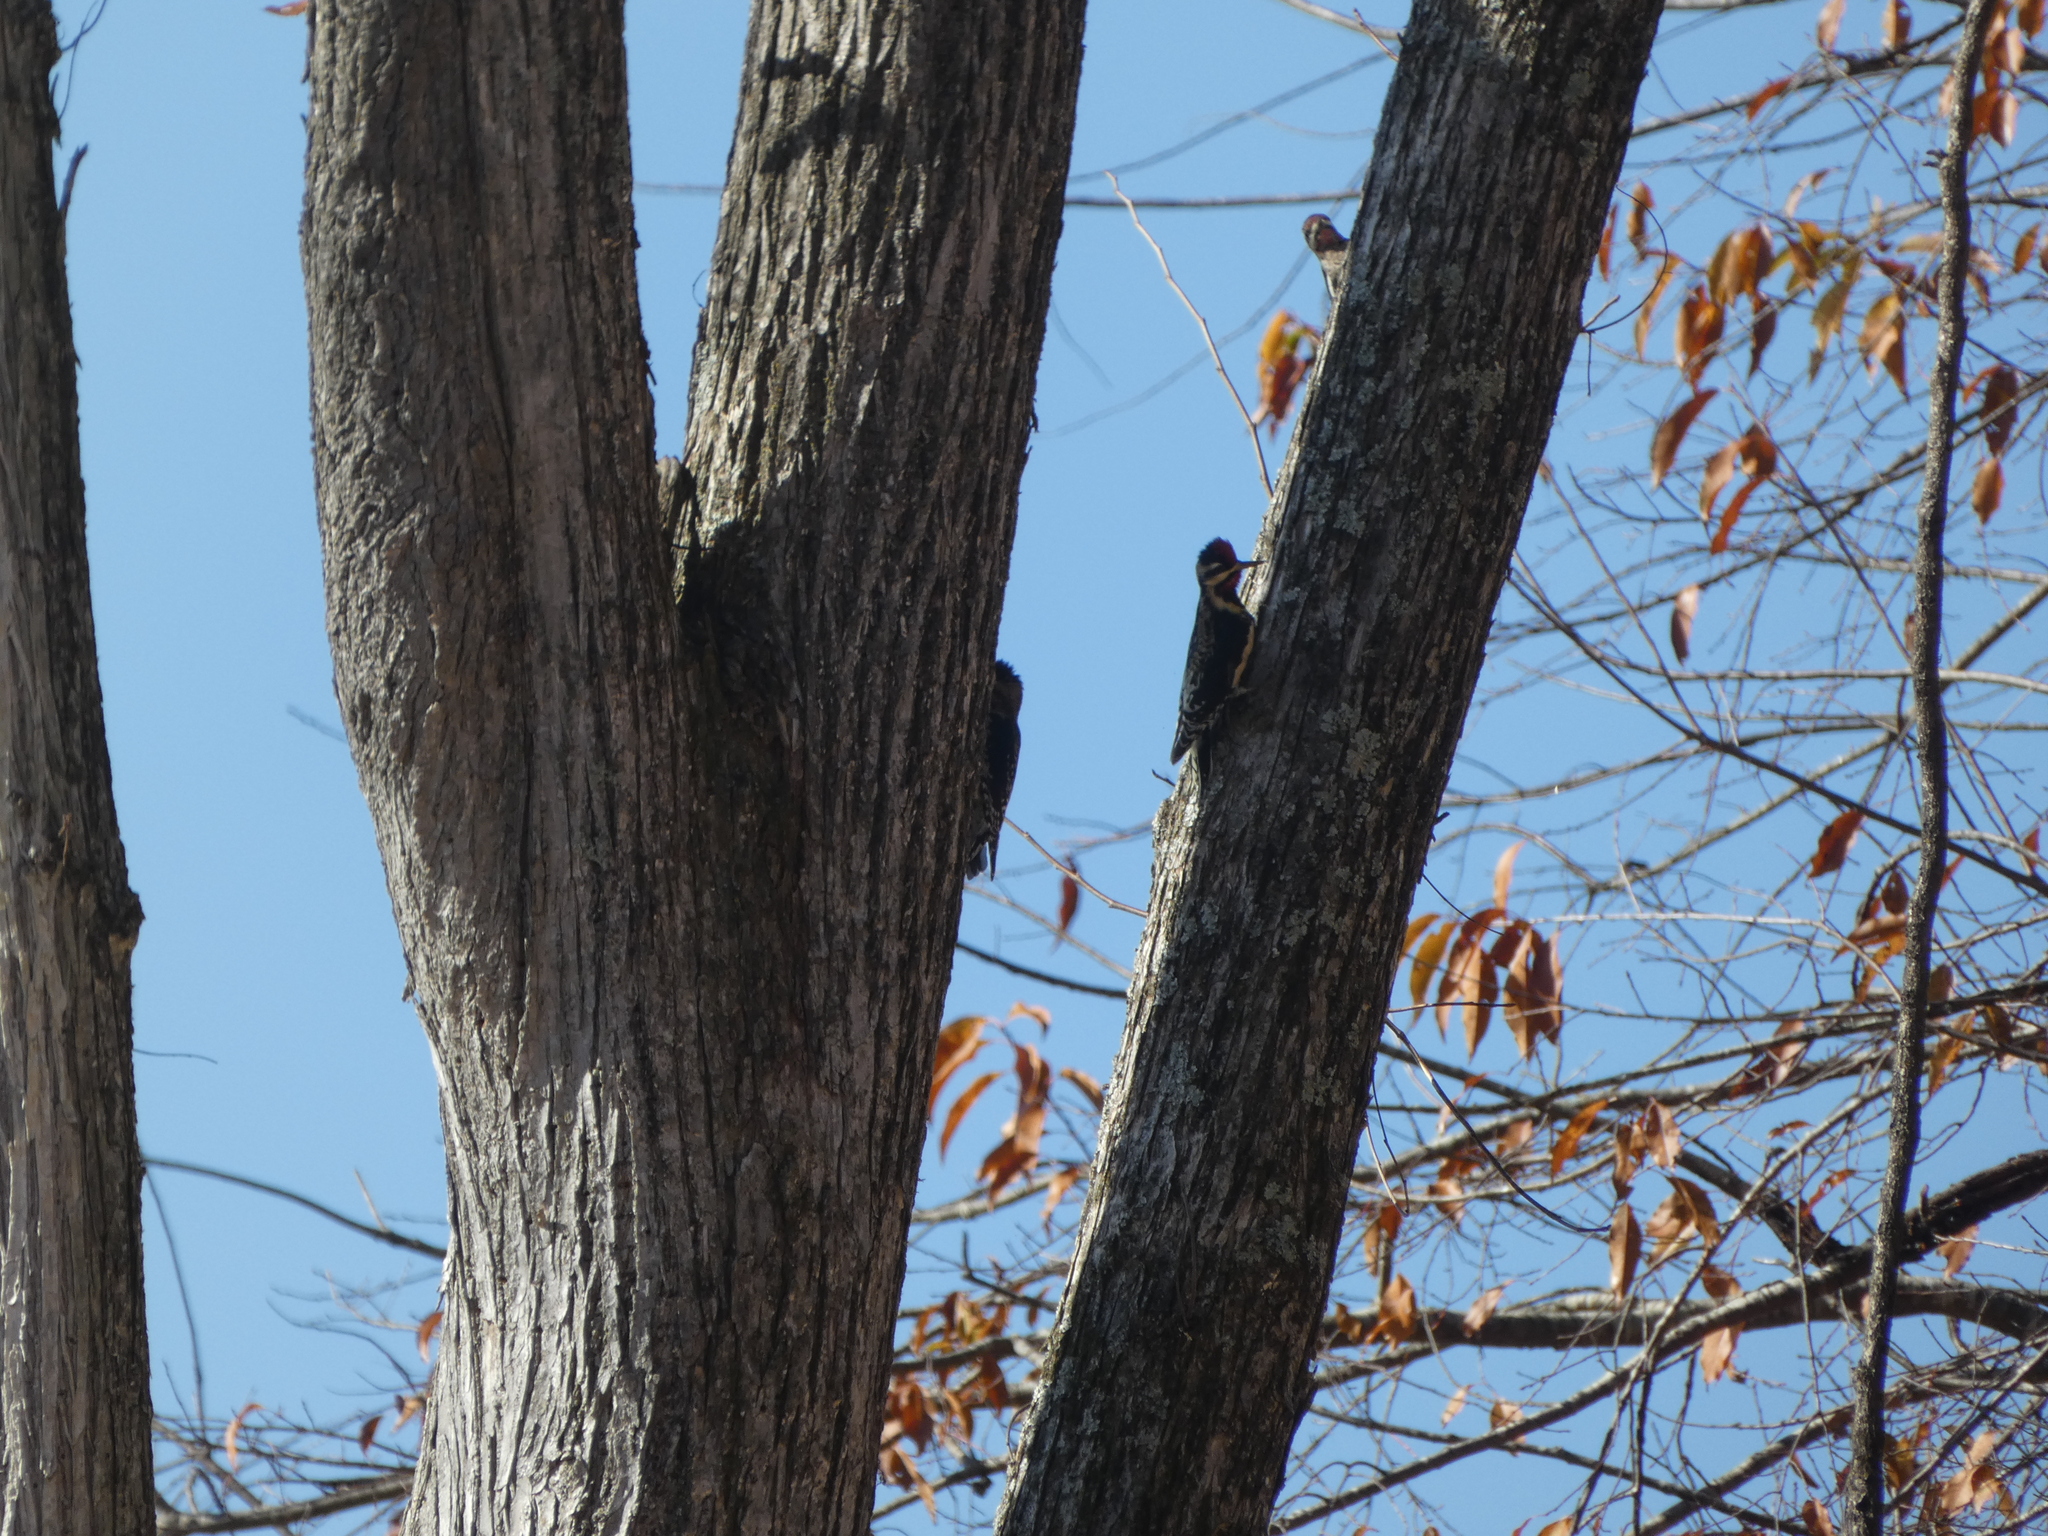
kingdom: Animalia
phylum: Chordata
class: Aves
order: Piciformes
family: Picidae
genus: Sphyrapicus
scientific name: Sphyrapicus varius
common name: Yellow-bellied sapsucker
